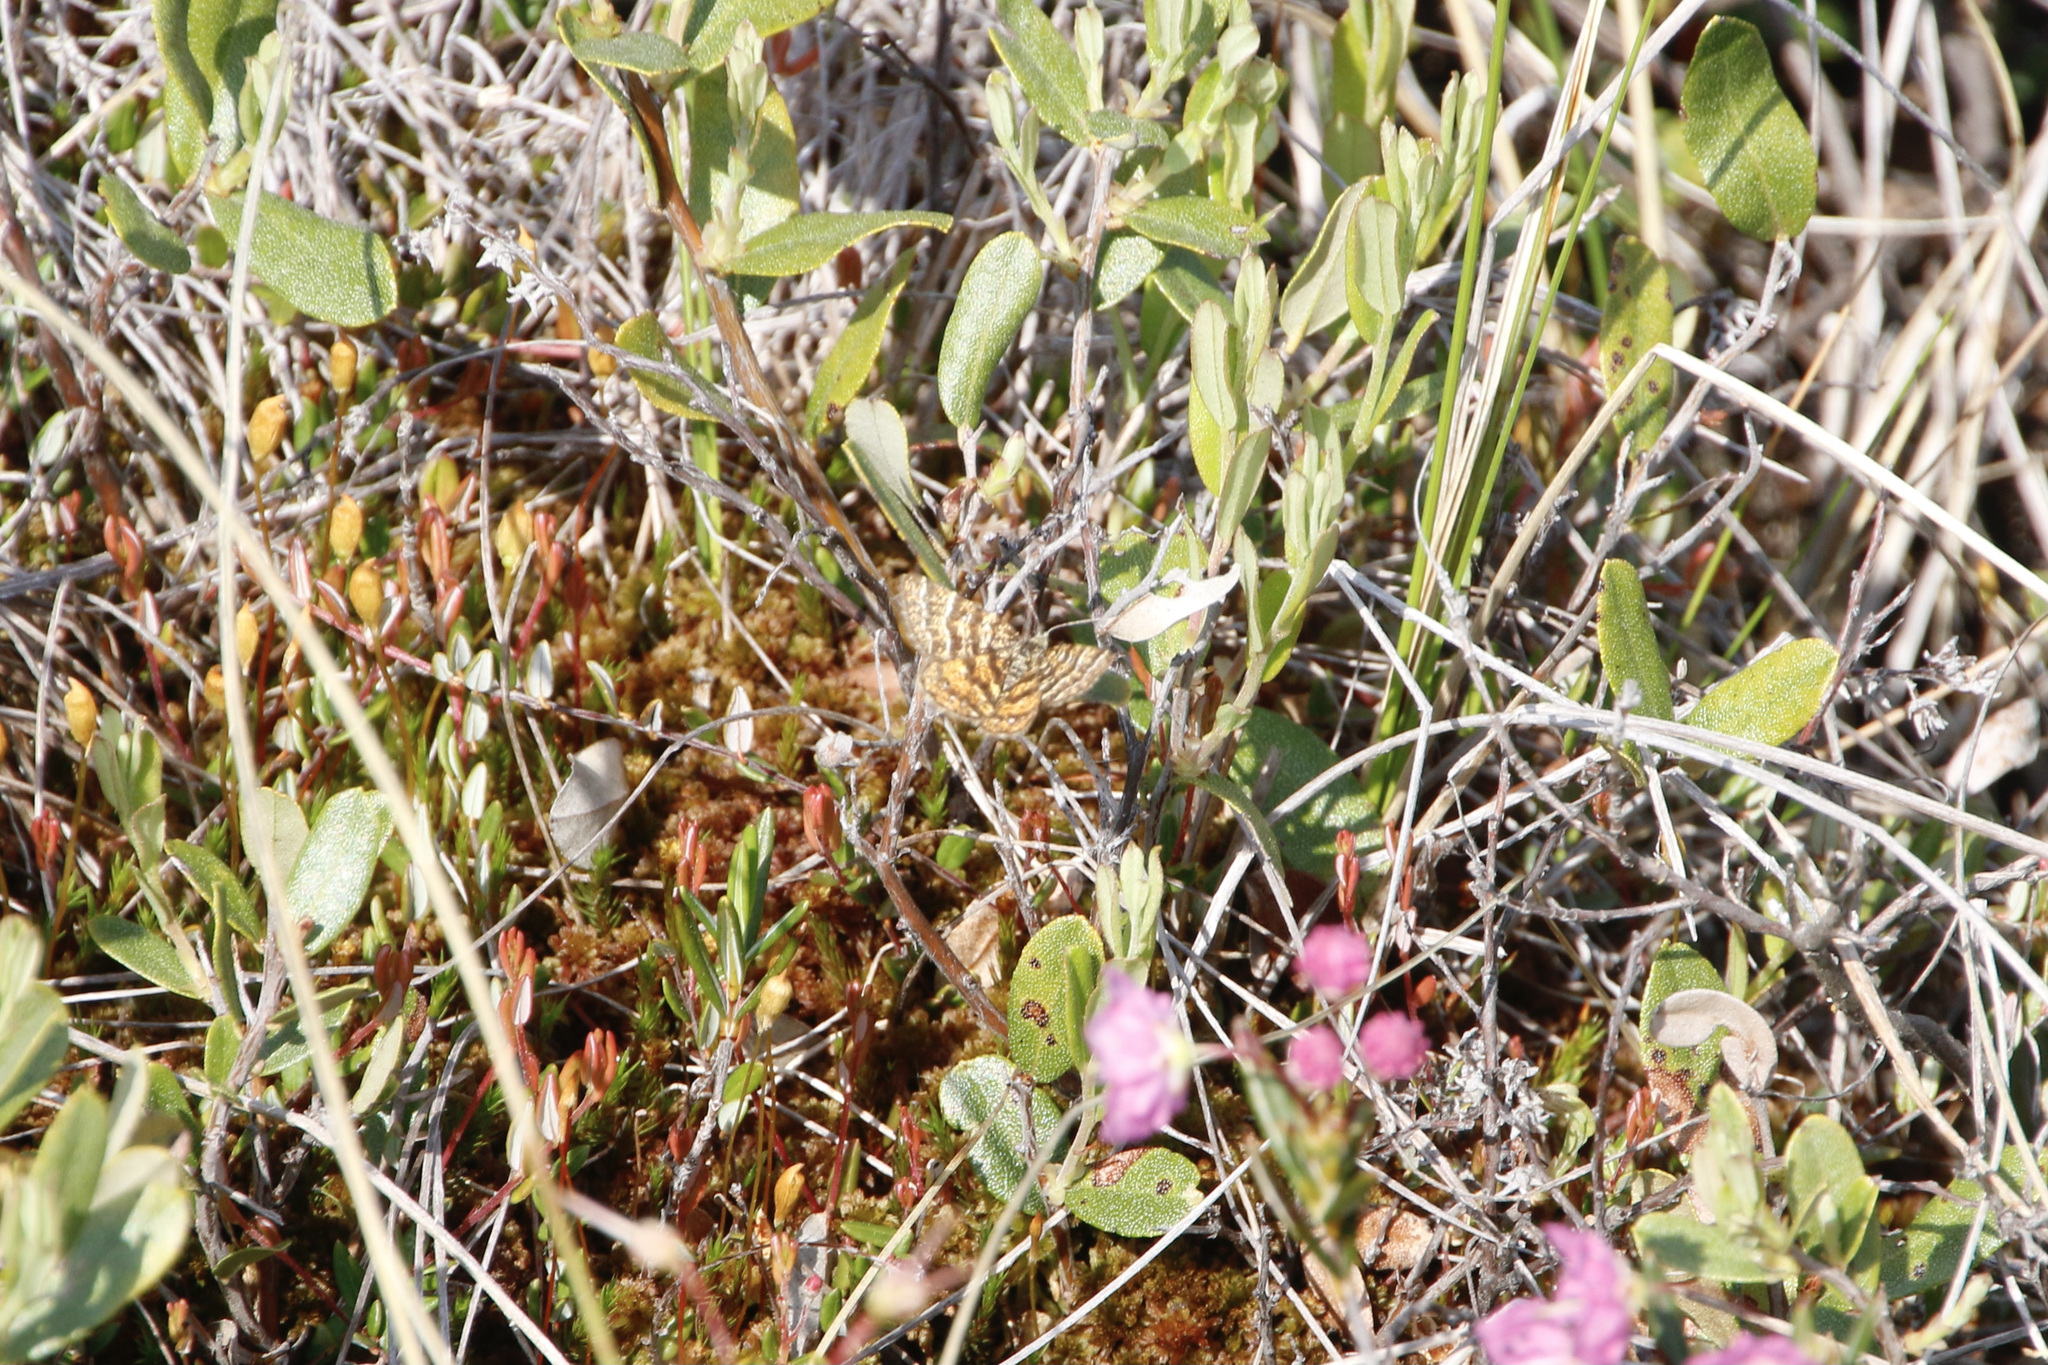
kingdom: Animalia
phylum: Arthropoda
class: Insecta
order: Lepidoptera
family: Geometridae
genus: Macaria
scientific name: Macaria truncataria
